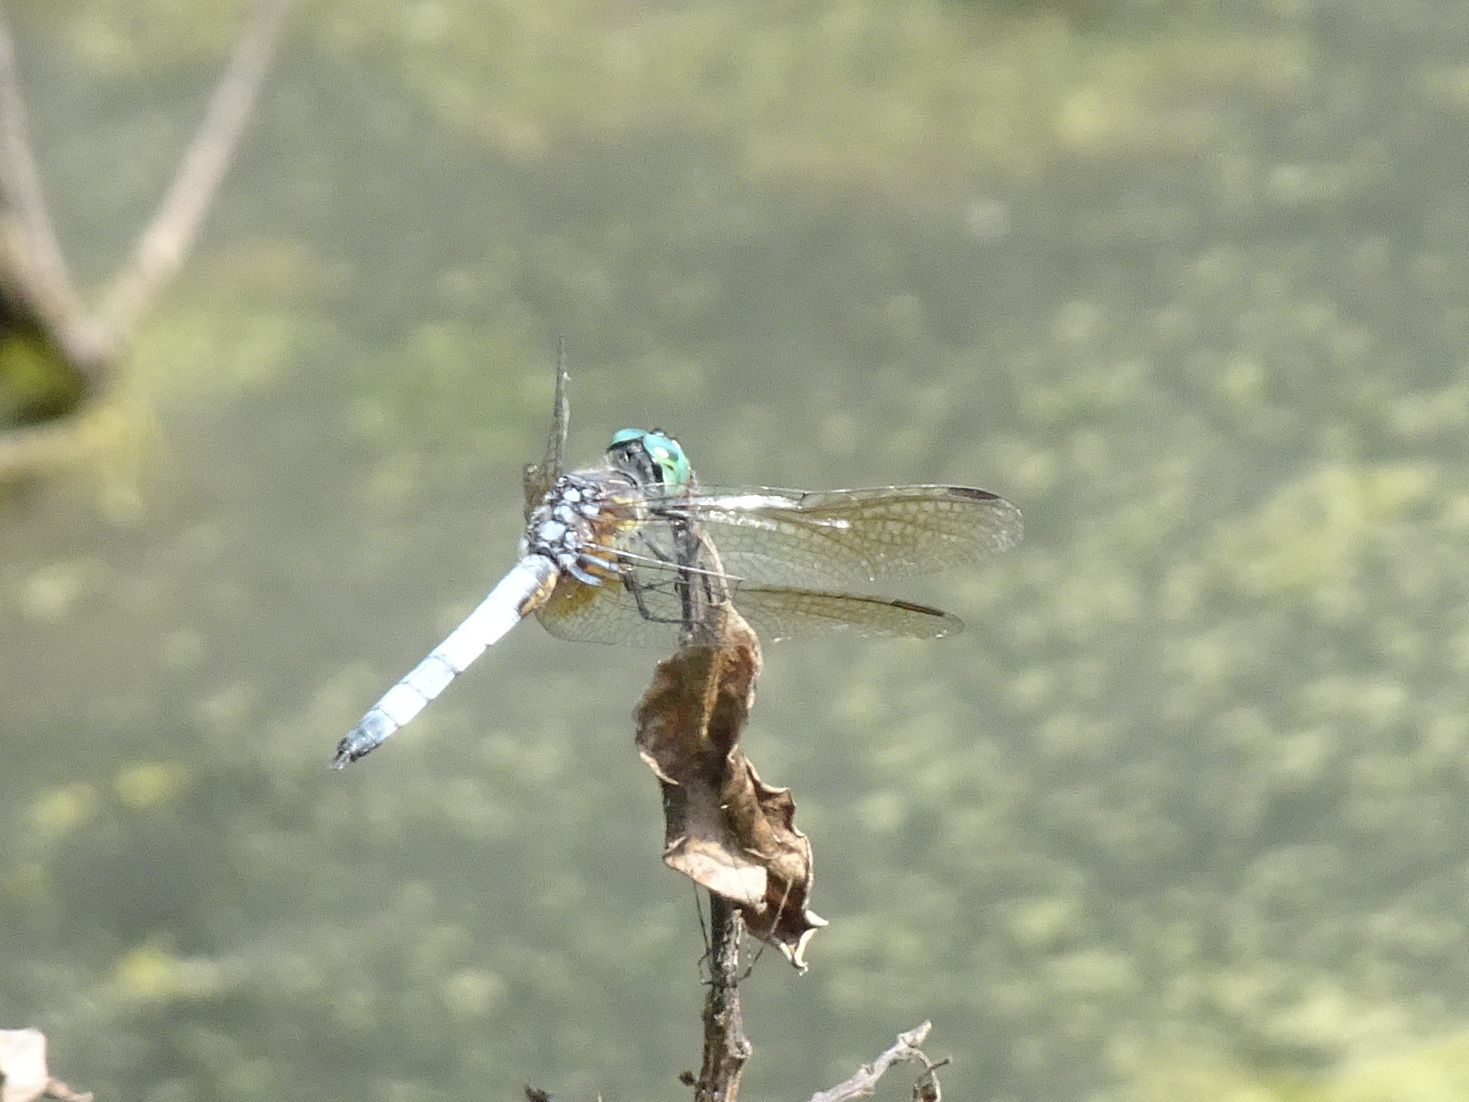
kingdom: Animalia
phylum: Arthropoda
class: Insecta
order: Odonata
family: Libellulidae
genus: Pachydiplax
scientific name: Pachydiplax longipennis
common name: Blue dasher
